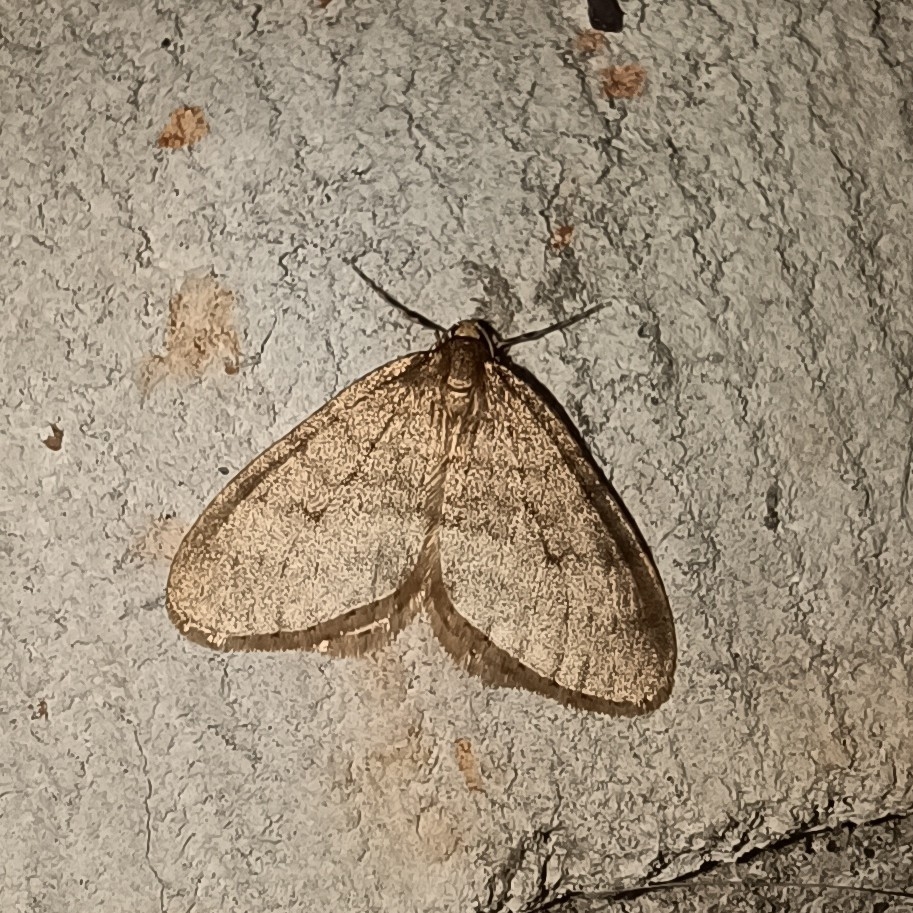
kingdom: Animalia
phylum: Arthropoda
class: Insecta
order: Lepidoptera
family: Geometridae
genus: Operophtera
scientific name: Operophtera brumata
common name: Winter moth
